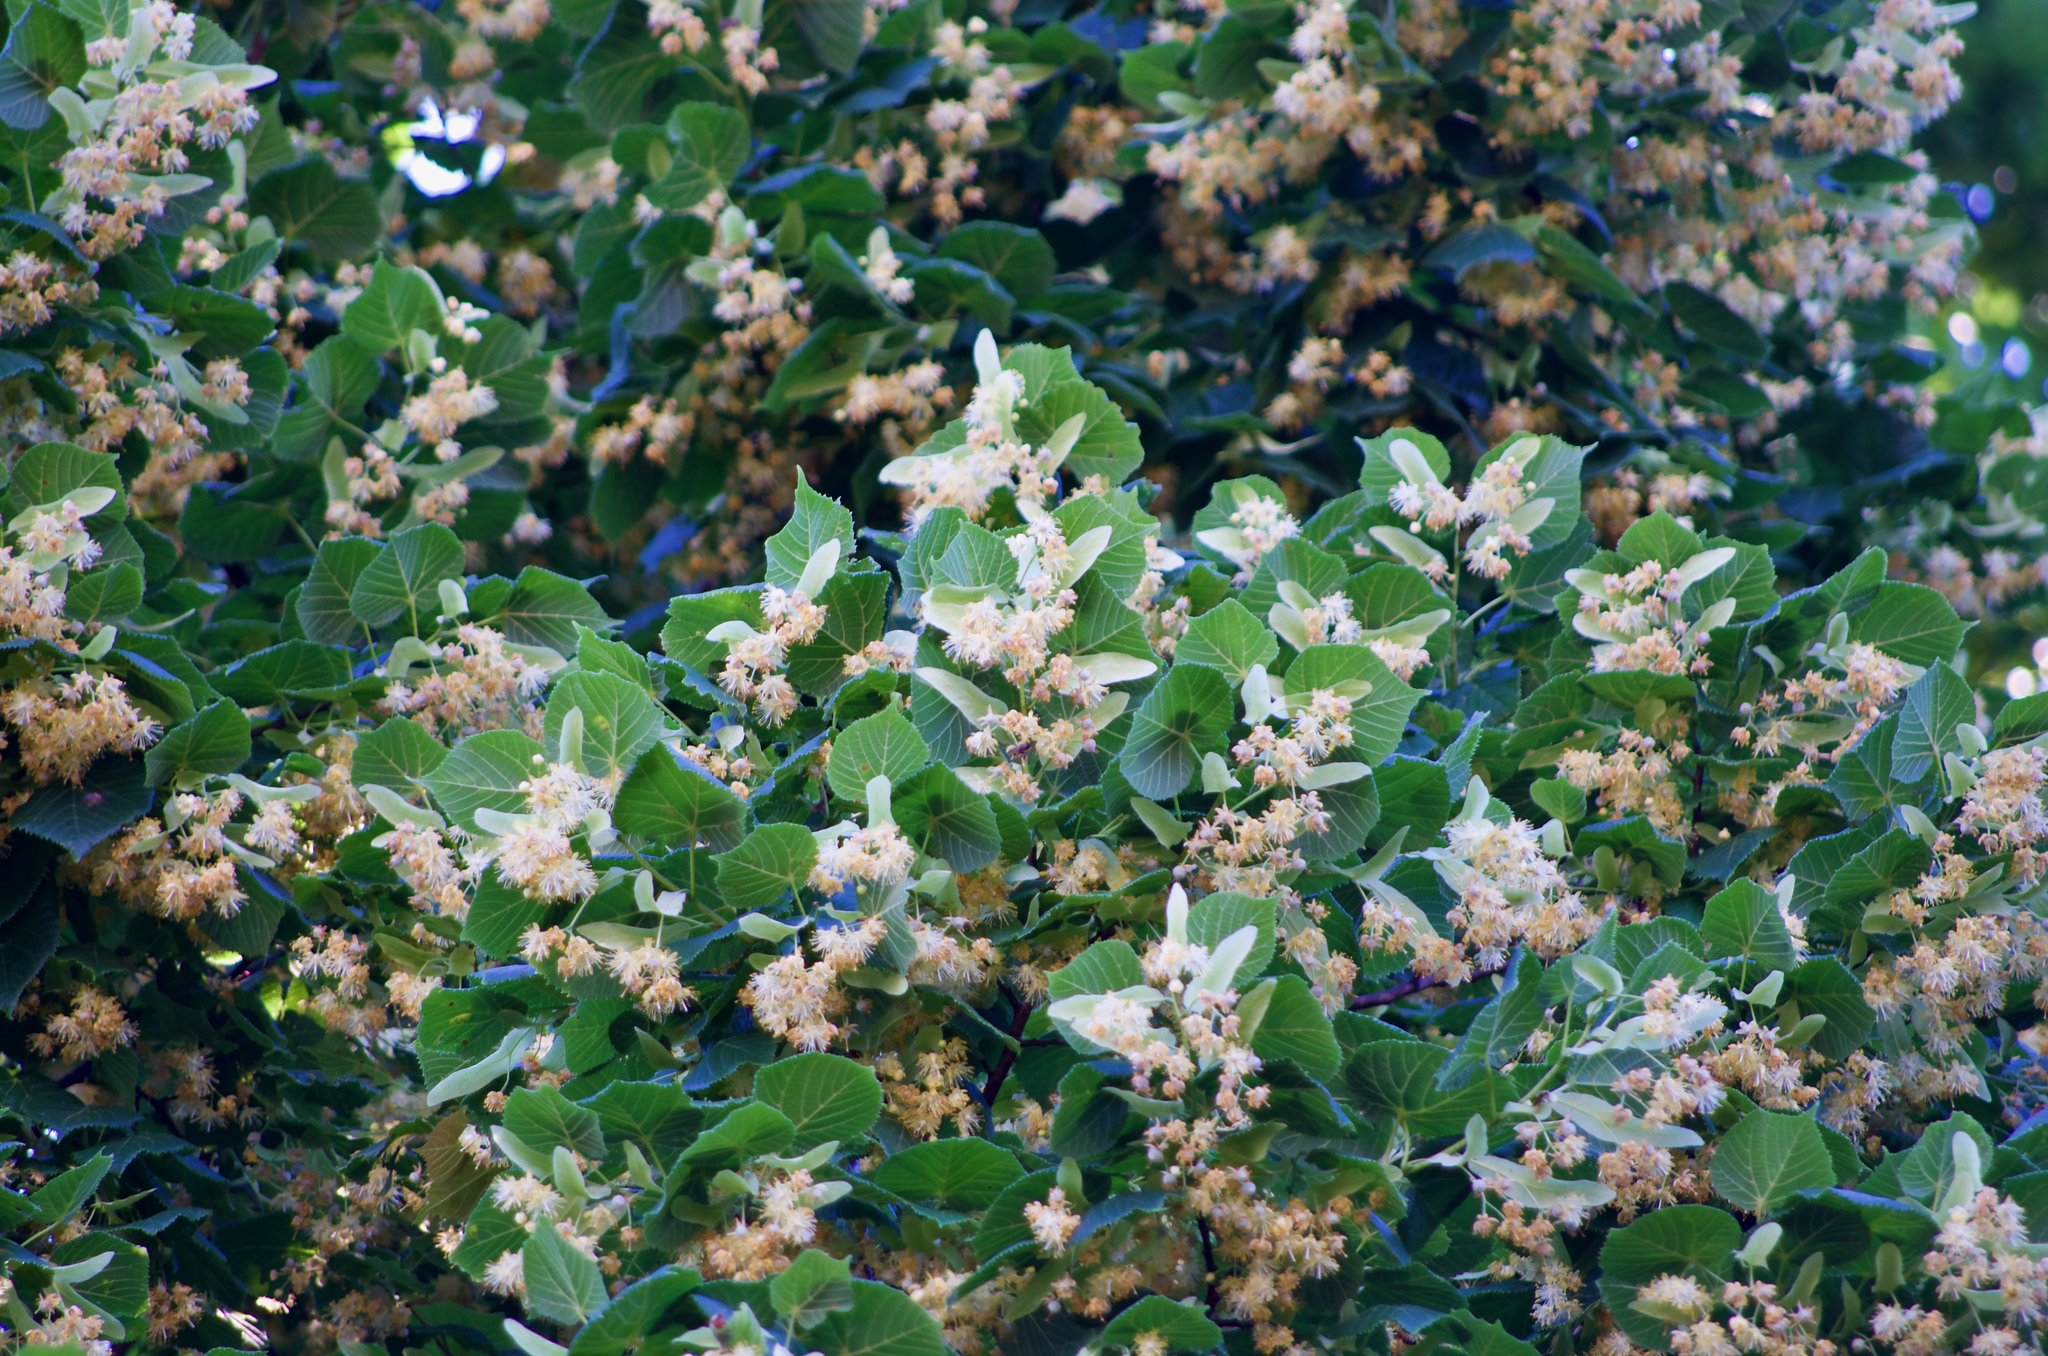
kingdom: Plantae
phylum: Tracheophyta
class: Magnoliopsida
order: Malvales
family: Malvaceae
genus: Tilia
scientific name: Tilia platyphyllos
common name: Large-leaved lime
